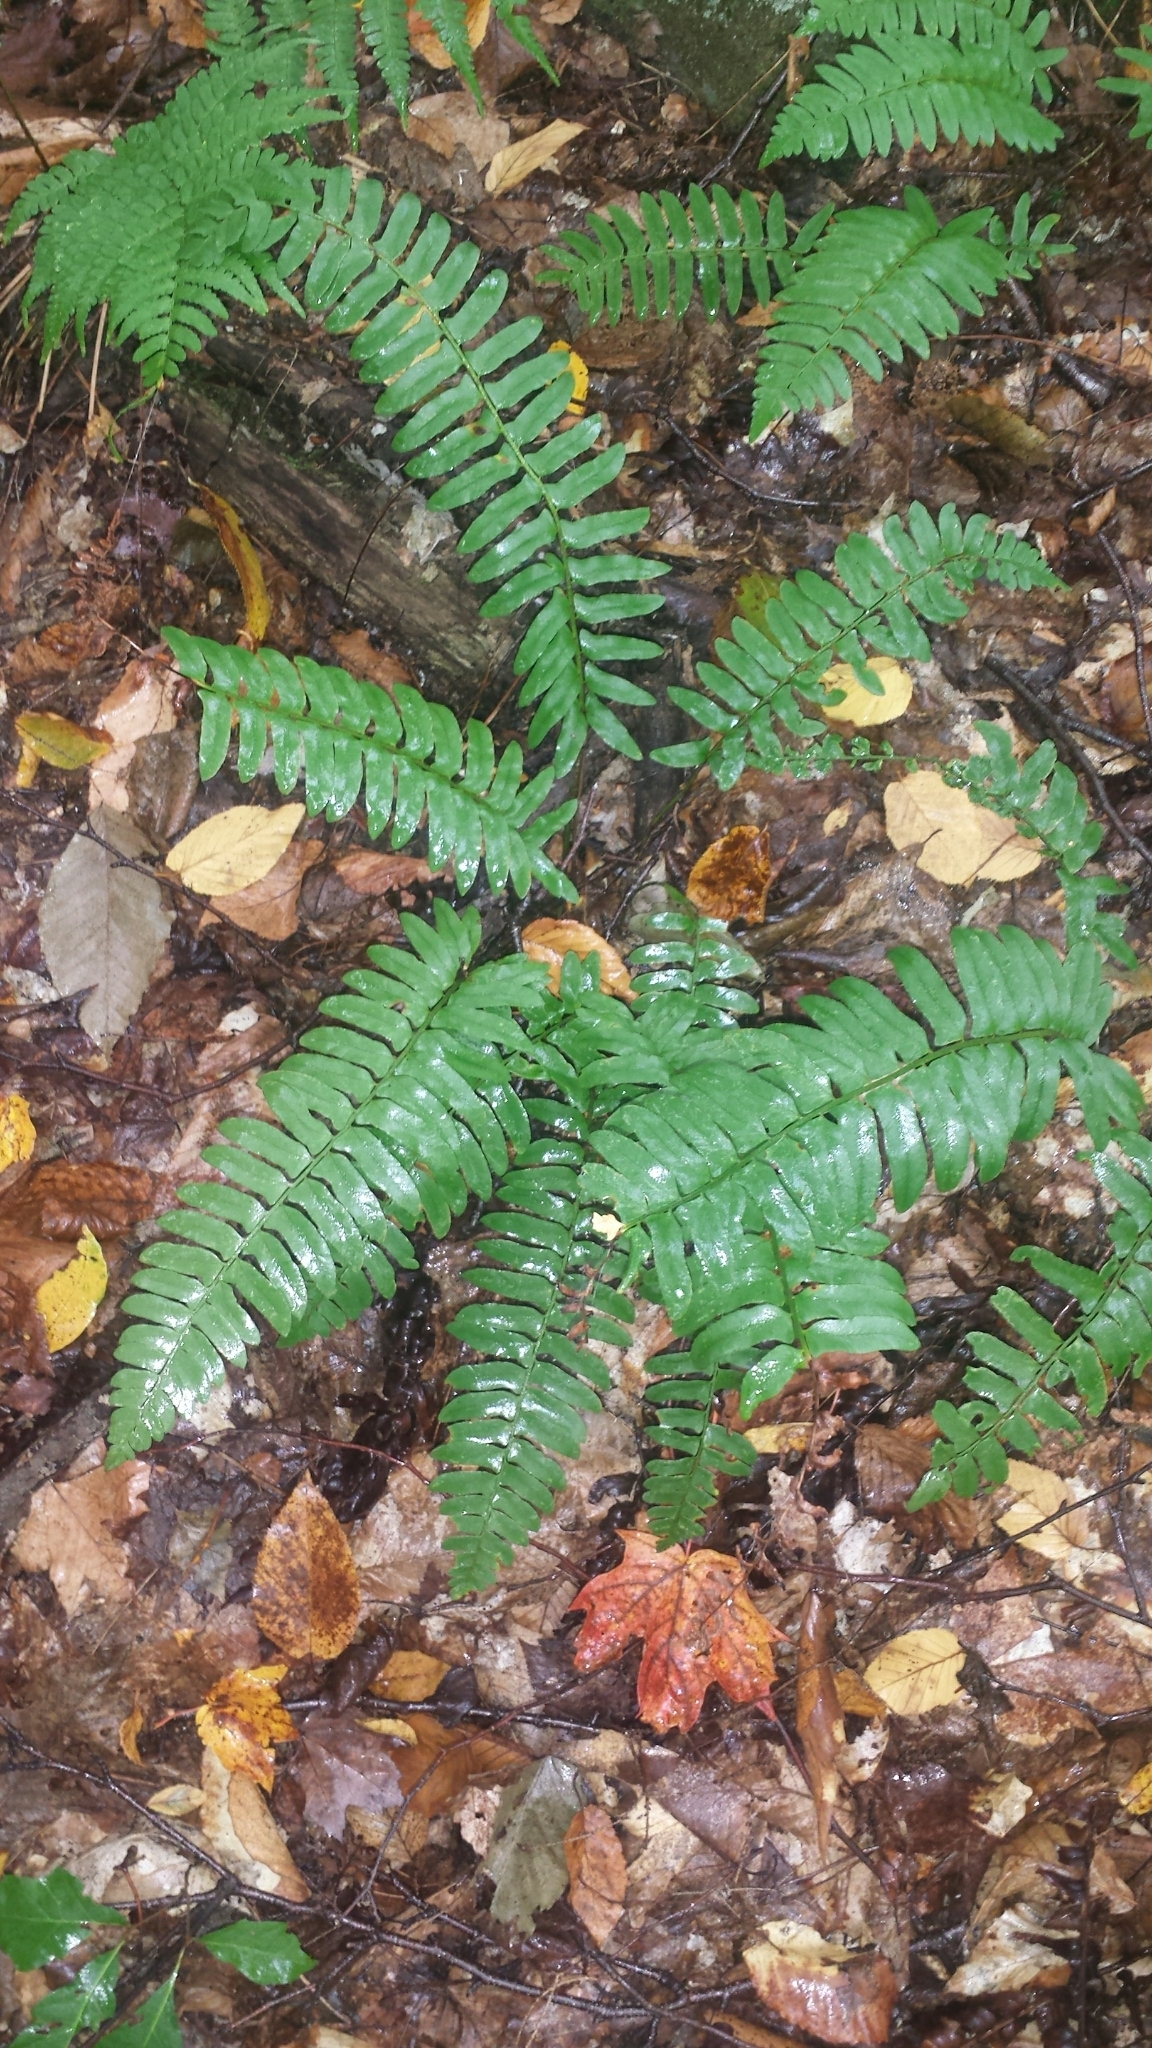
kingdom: Plantae
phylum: Tracheophyta
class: Polypodiopsida
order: Polypodiales
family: Dryopteridaceae
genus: Polystichum
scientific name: Polystichum acrostichoides
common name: Christmas fern
